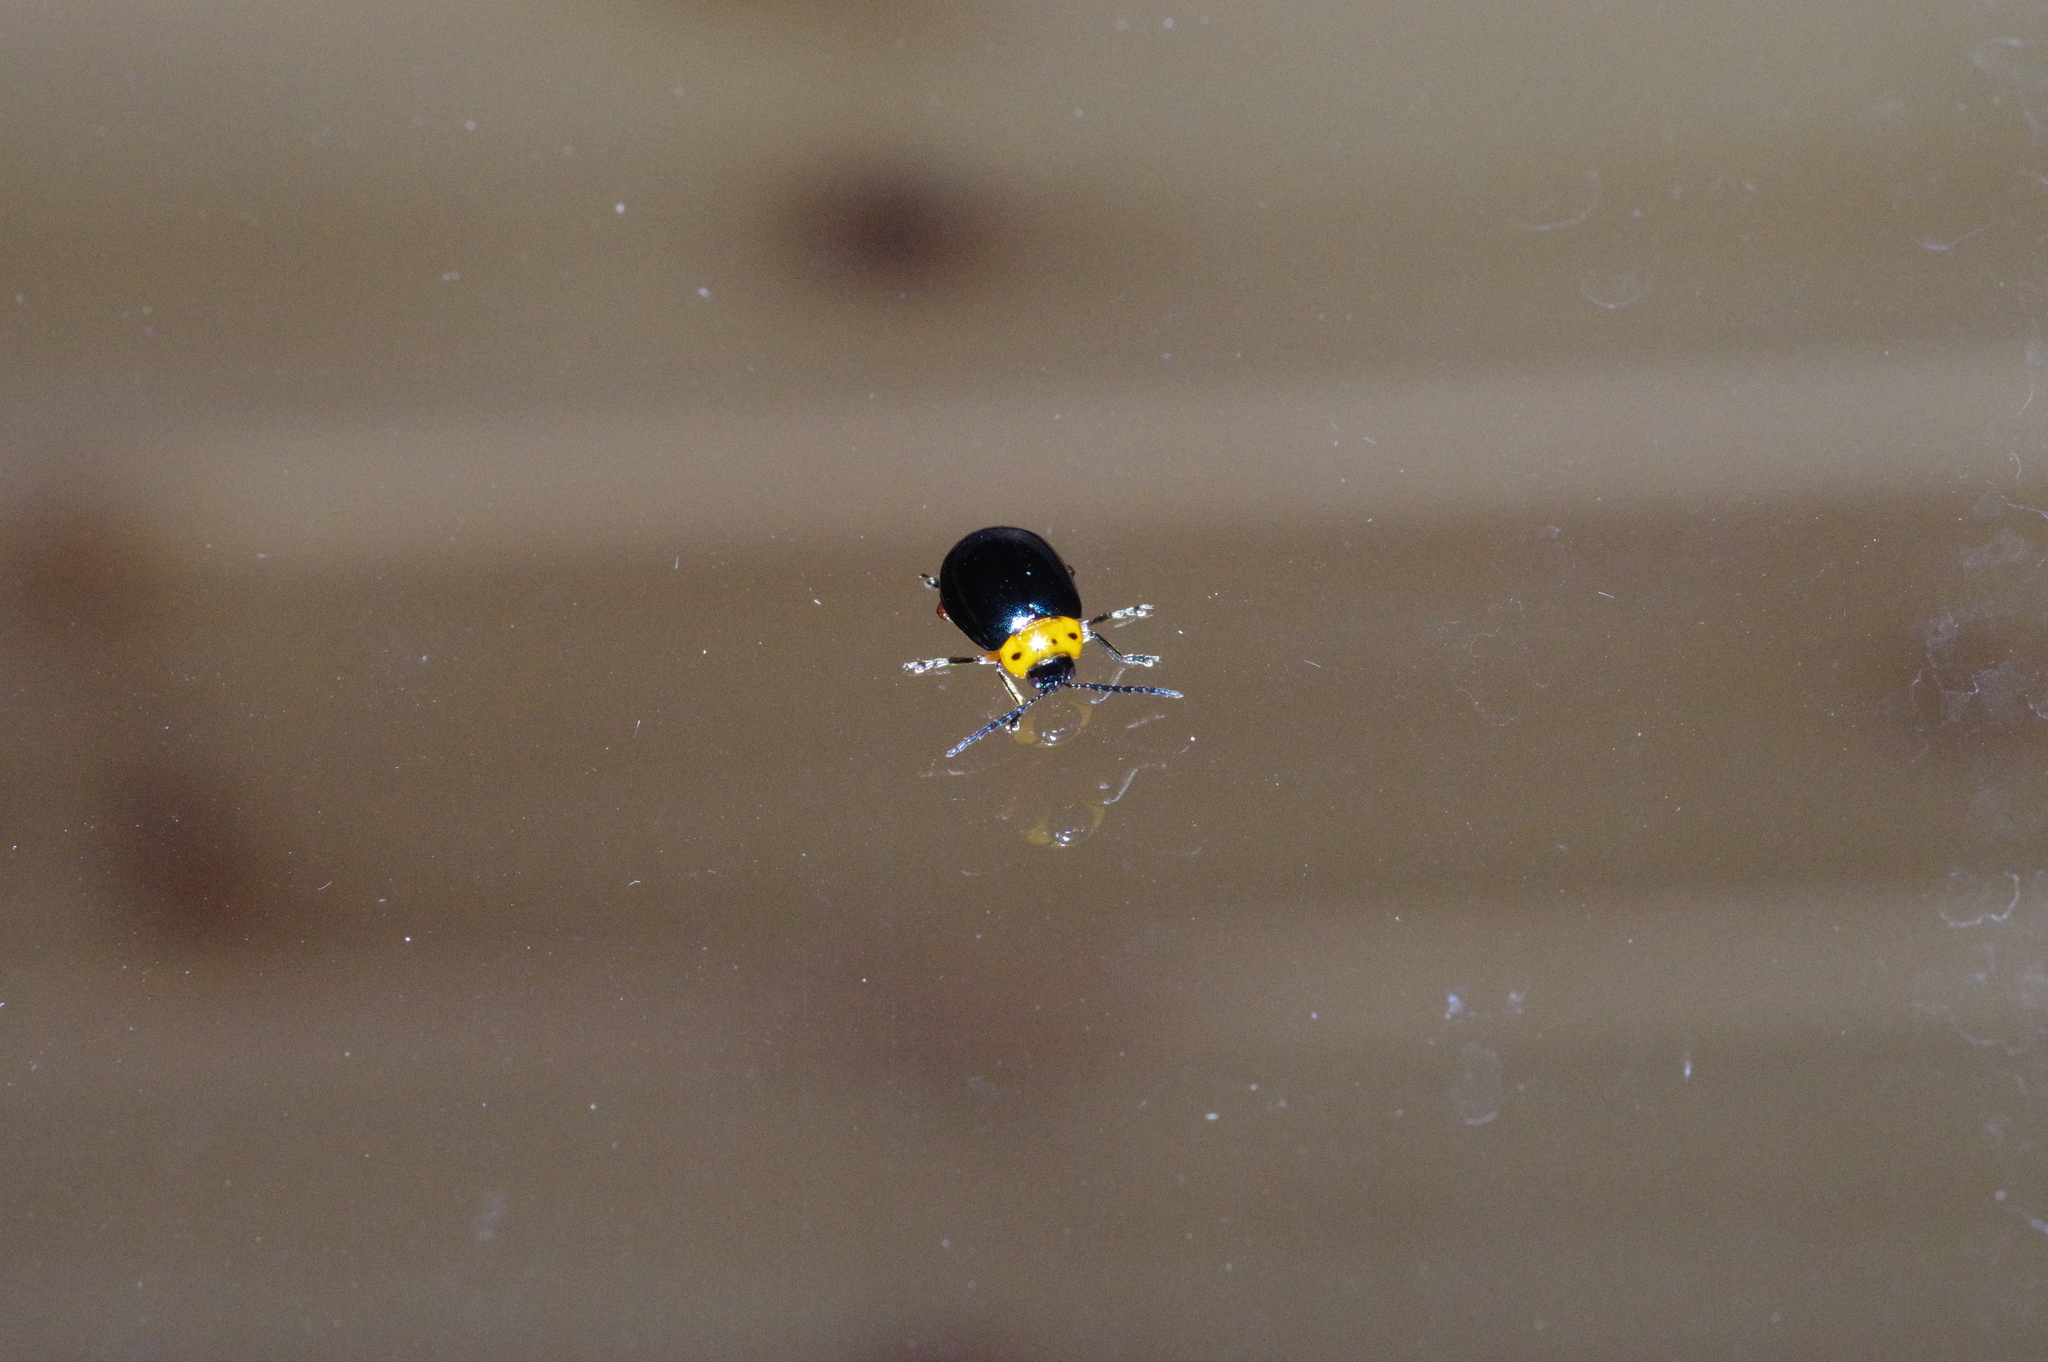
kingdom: Animalia
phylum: Arthropoda
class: Insecta
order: Coleoptera
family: Chrysomelidae
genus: Morphosphaera
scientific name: Morphosphaera caerulea
